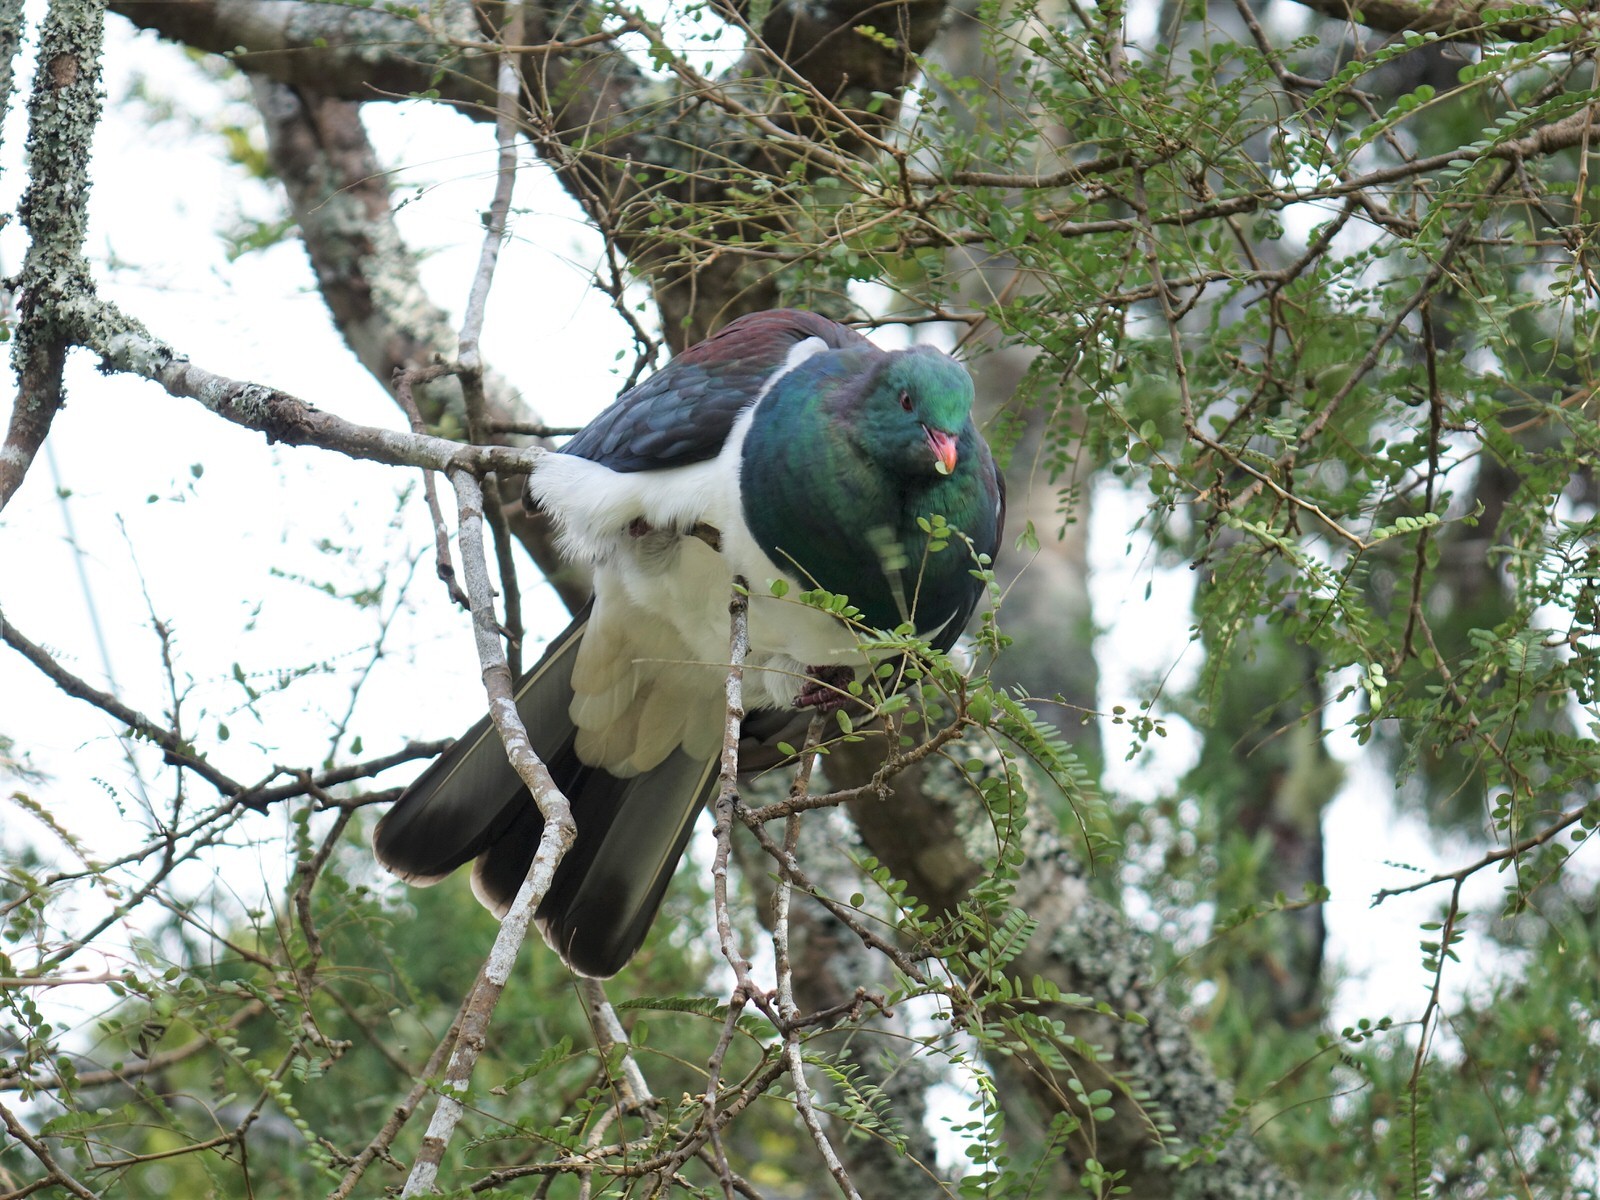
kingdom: Animalia
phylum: Chordata
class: Aves
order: Columbiformes
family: Columbidae
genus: Hemiphaga
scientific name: Hemiphaga novaeseelandiae
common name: New zealand pigeon
